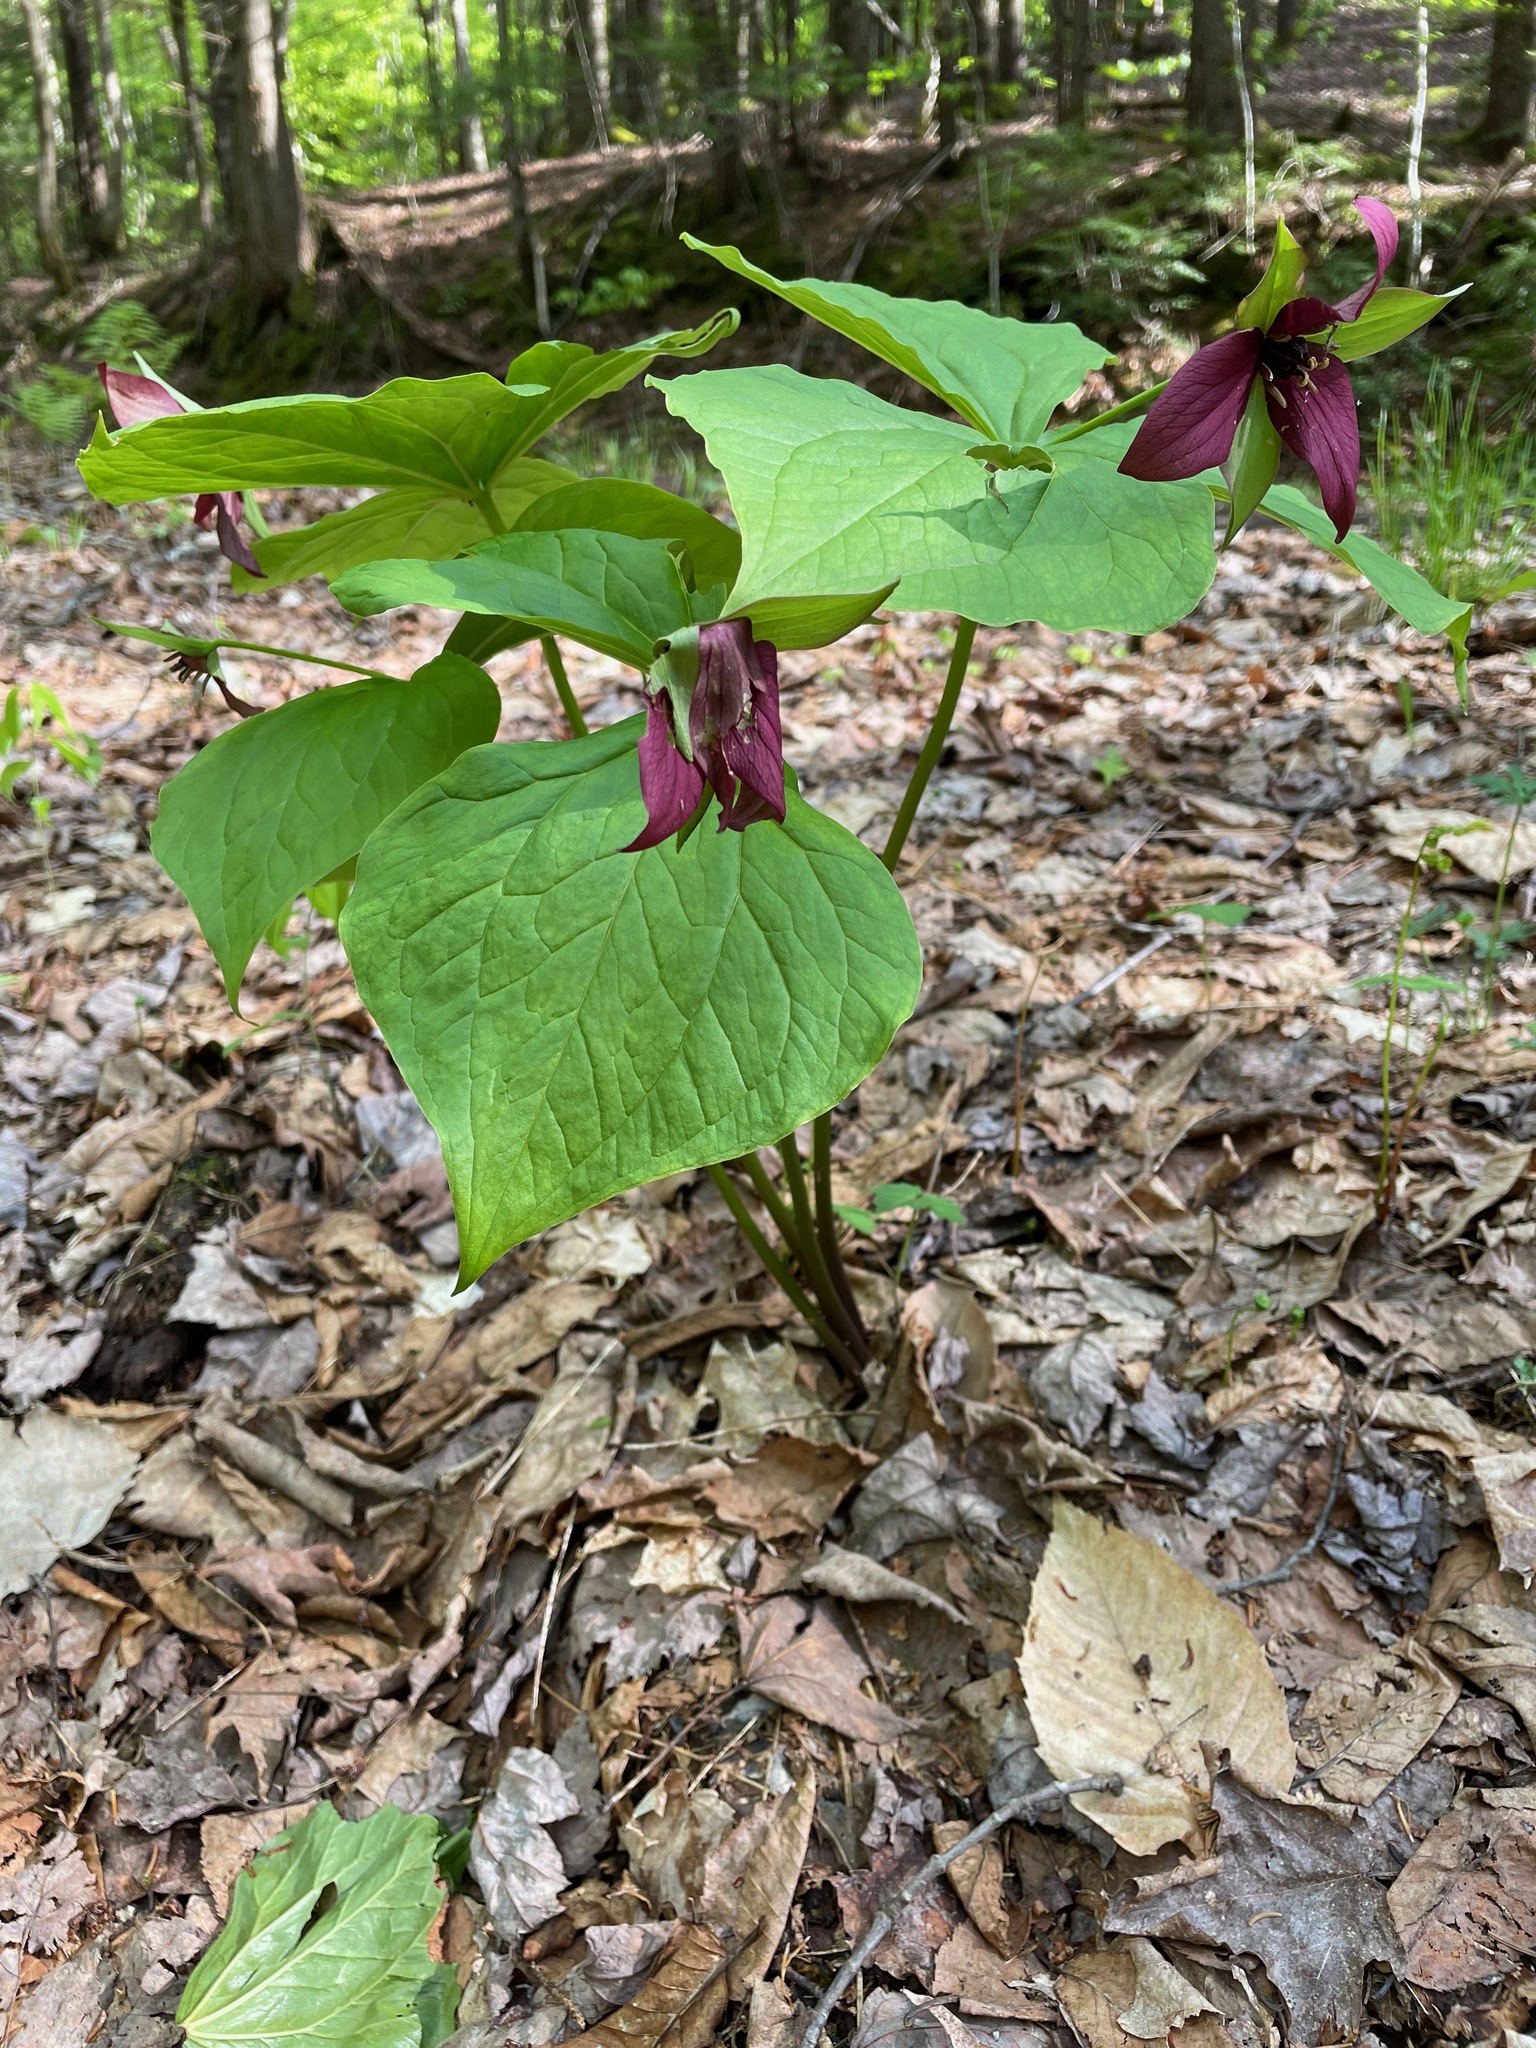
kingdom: Plantae
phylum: Tracheophyta
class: Liliopsida
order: Liliales
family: Melanthiaceae
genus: Trillium
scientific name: Trillium erectum
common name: Purple trillium
